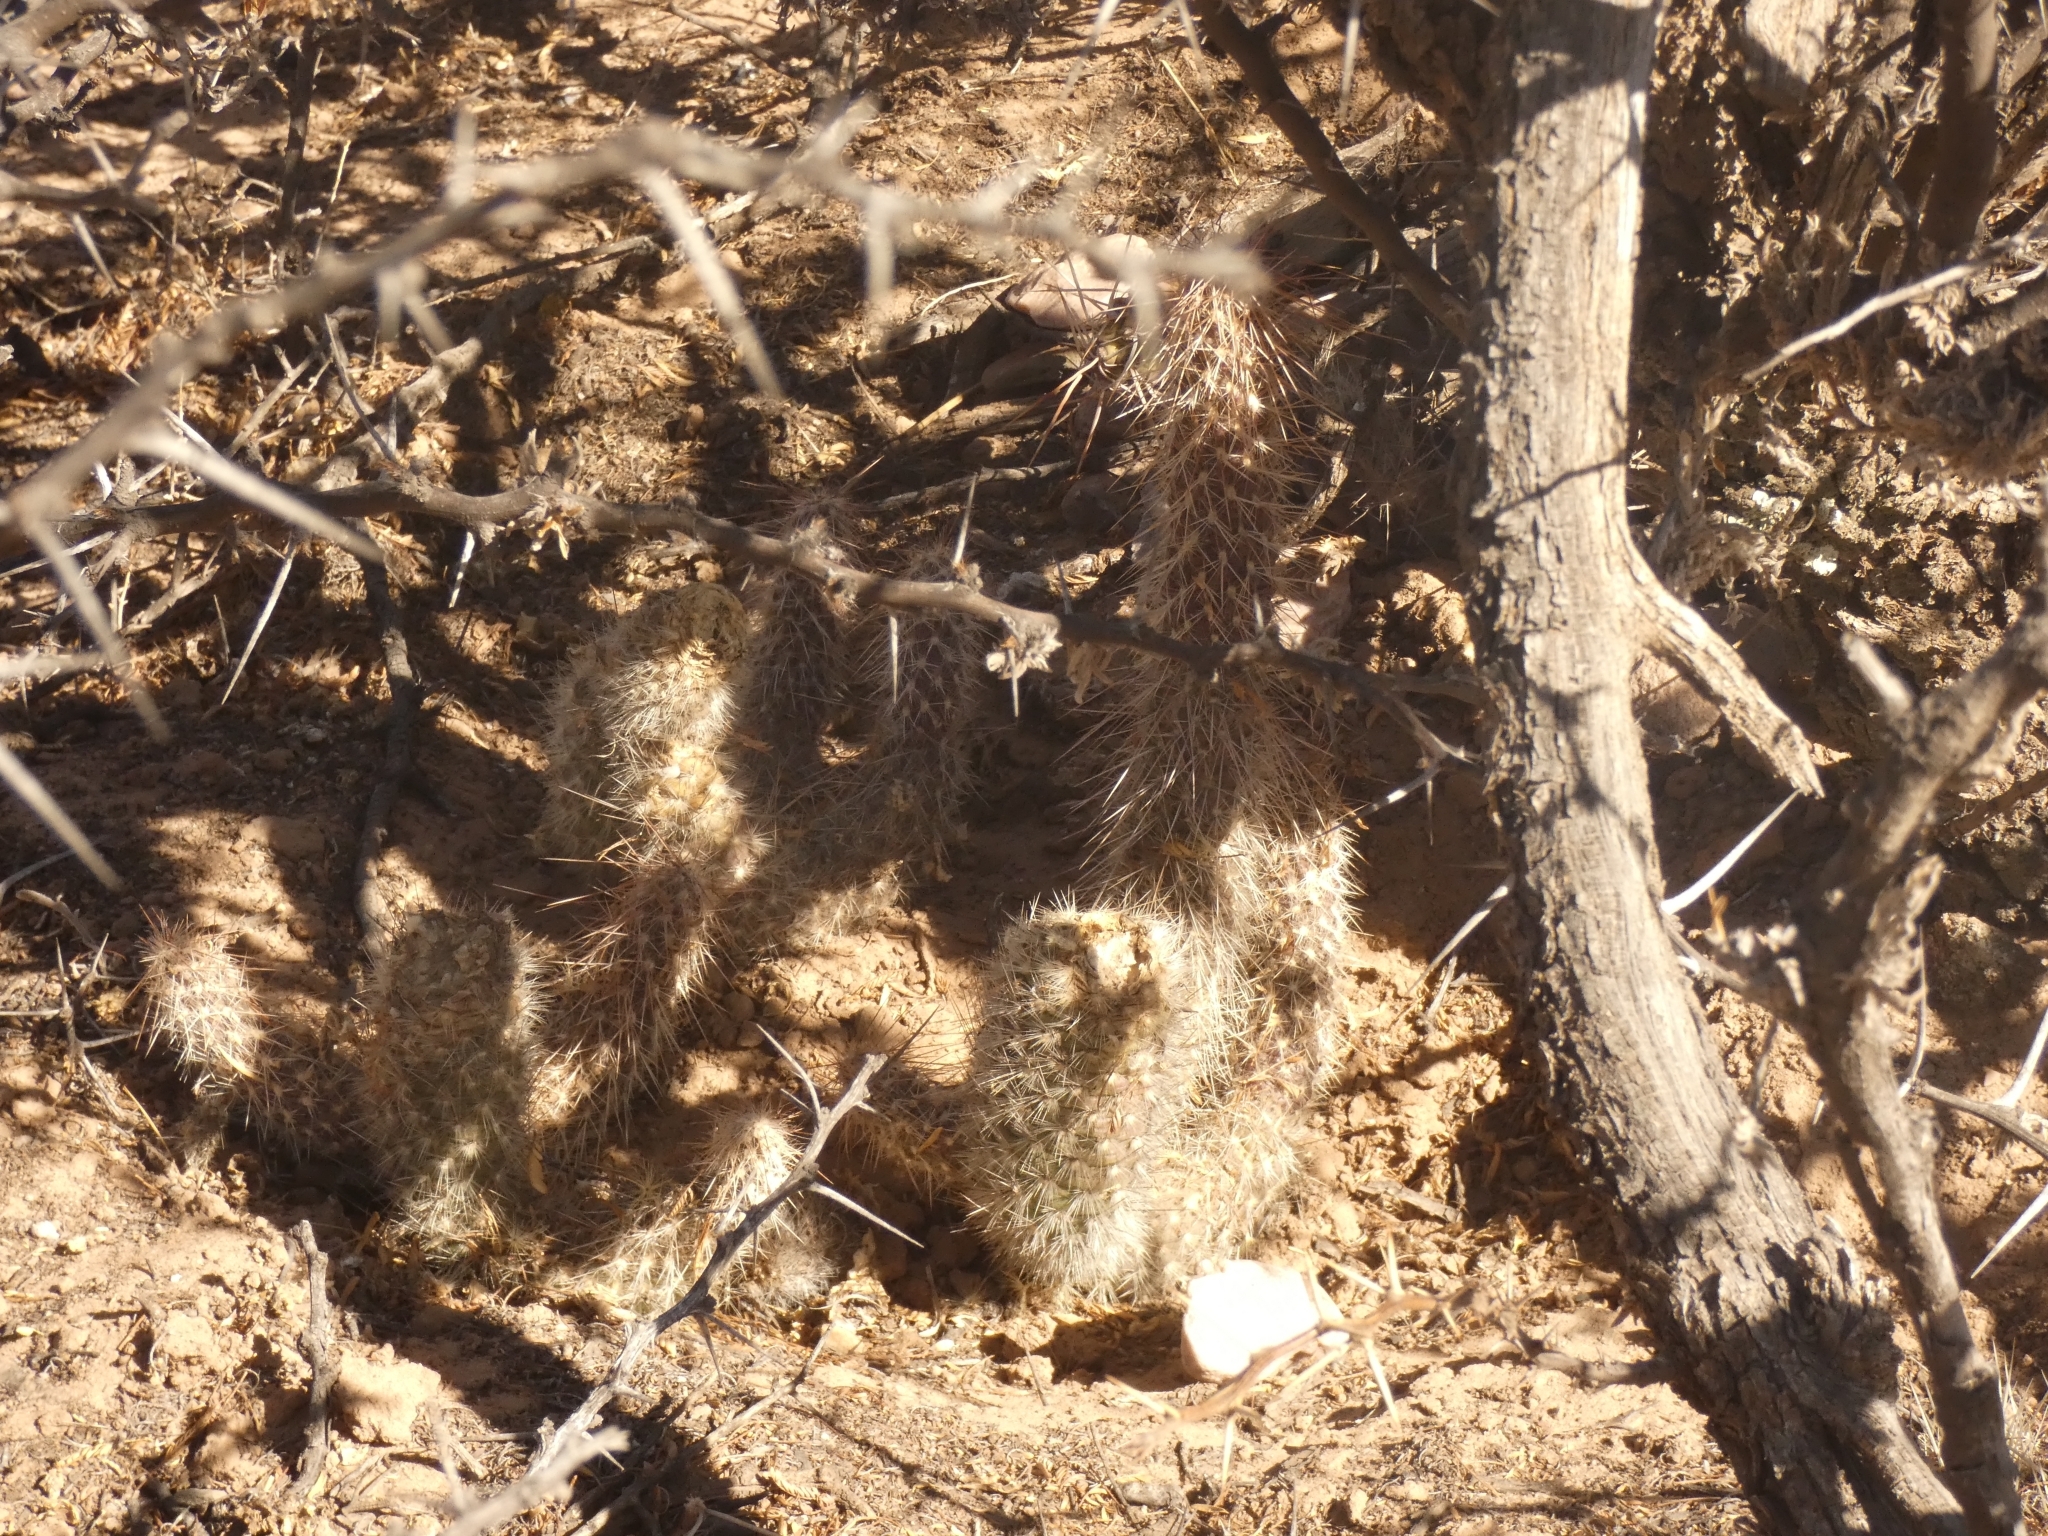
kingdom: Plantae
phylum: Tracheophyta
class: Magnoliopsida
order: Caryophyllales
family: Cactaceae
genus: Austrocylindropuntia
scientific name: Austrocylindropuntia shaferi
